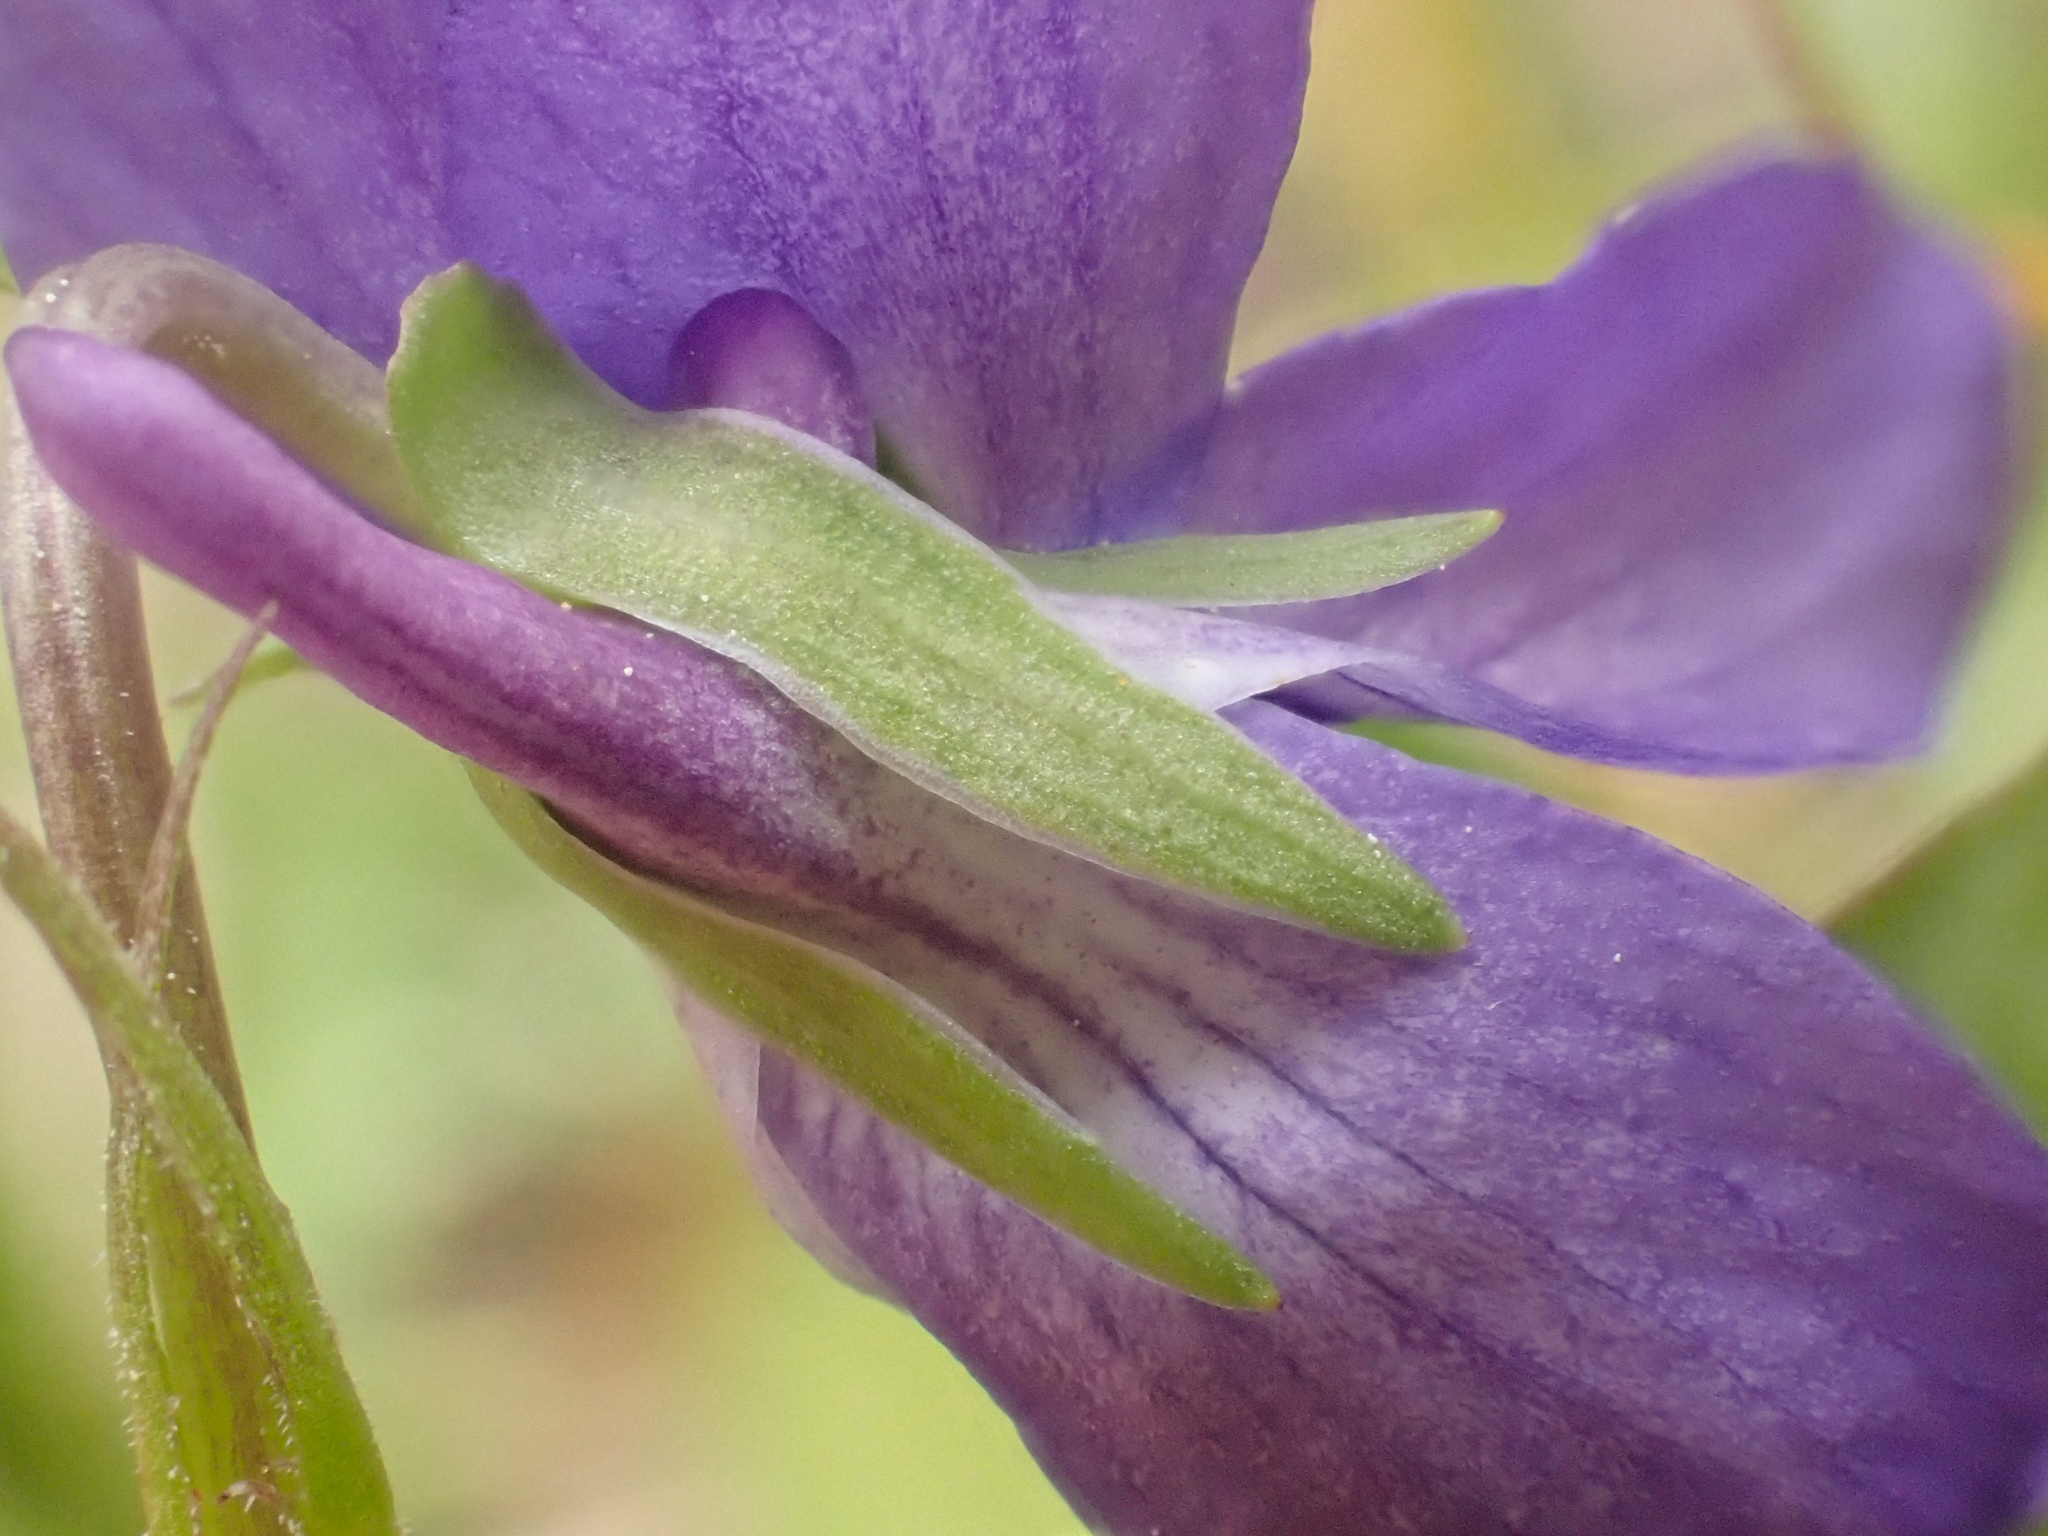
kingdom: Plantae
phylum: Tracheophyta
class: Magnoliopsida
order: Malpighiales
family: Violaceae
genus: Viola
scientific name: Viola adunca
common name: Sand violet
